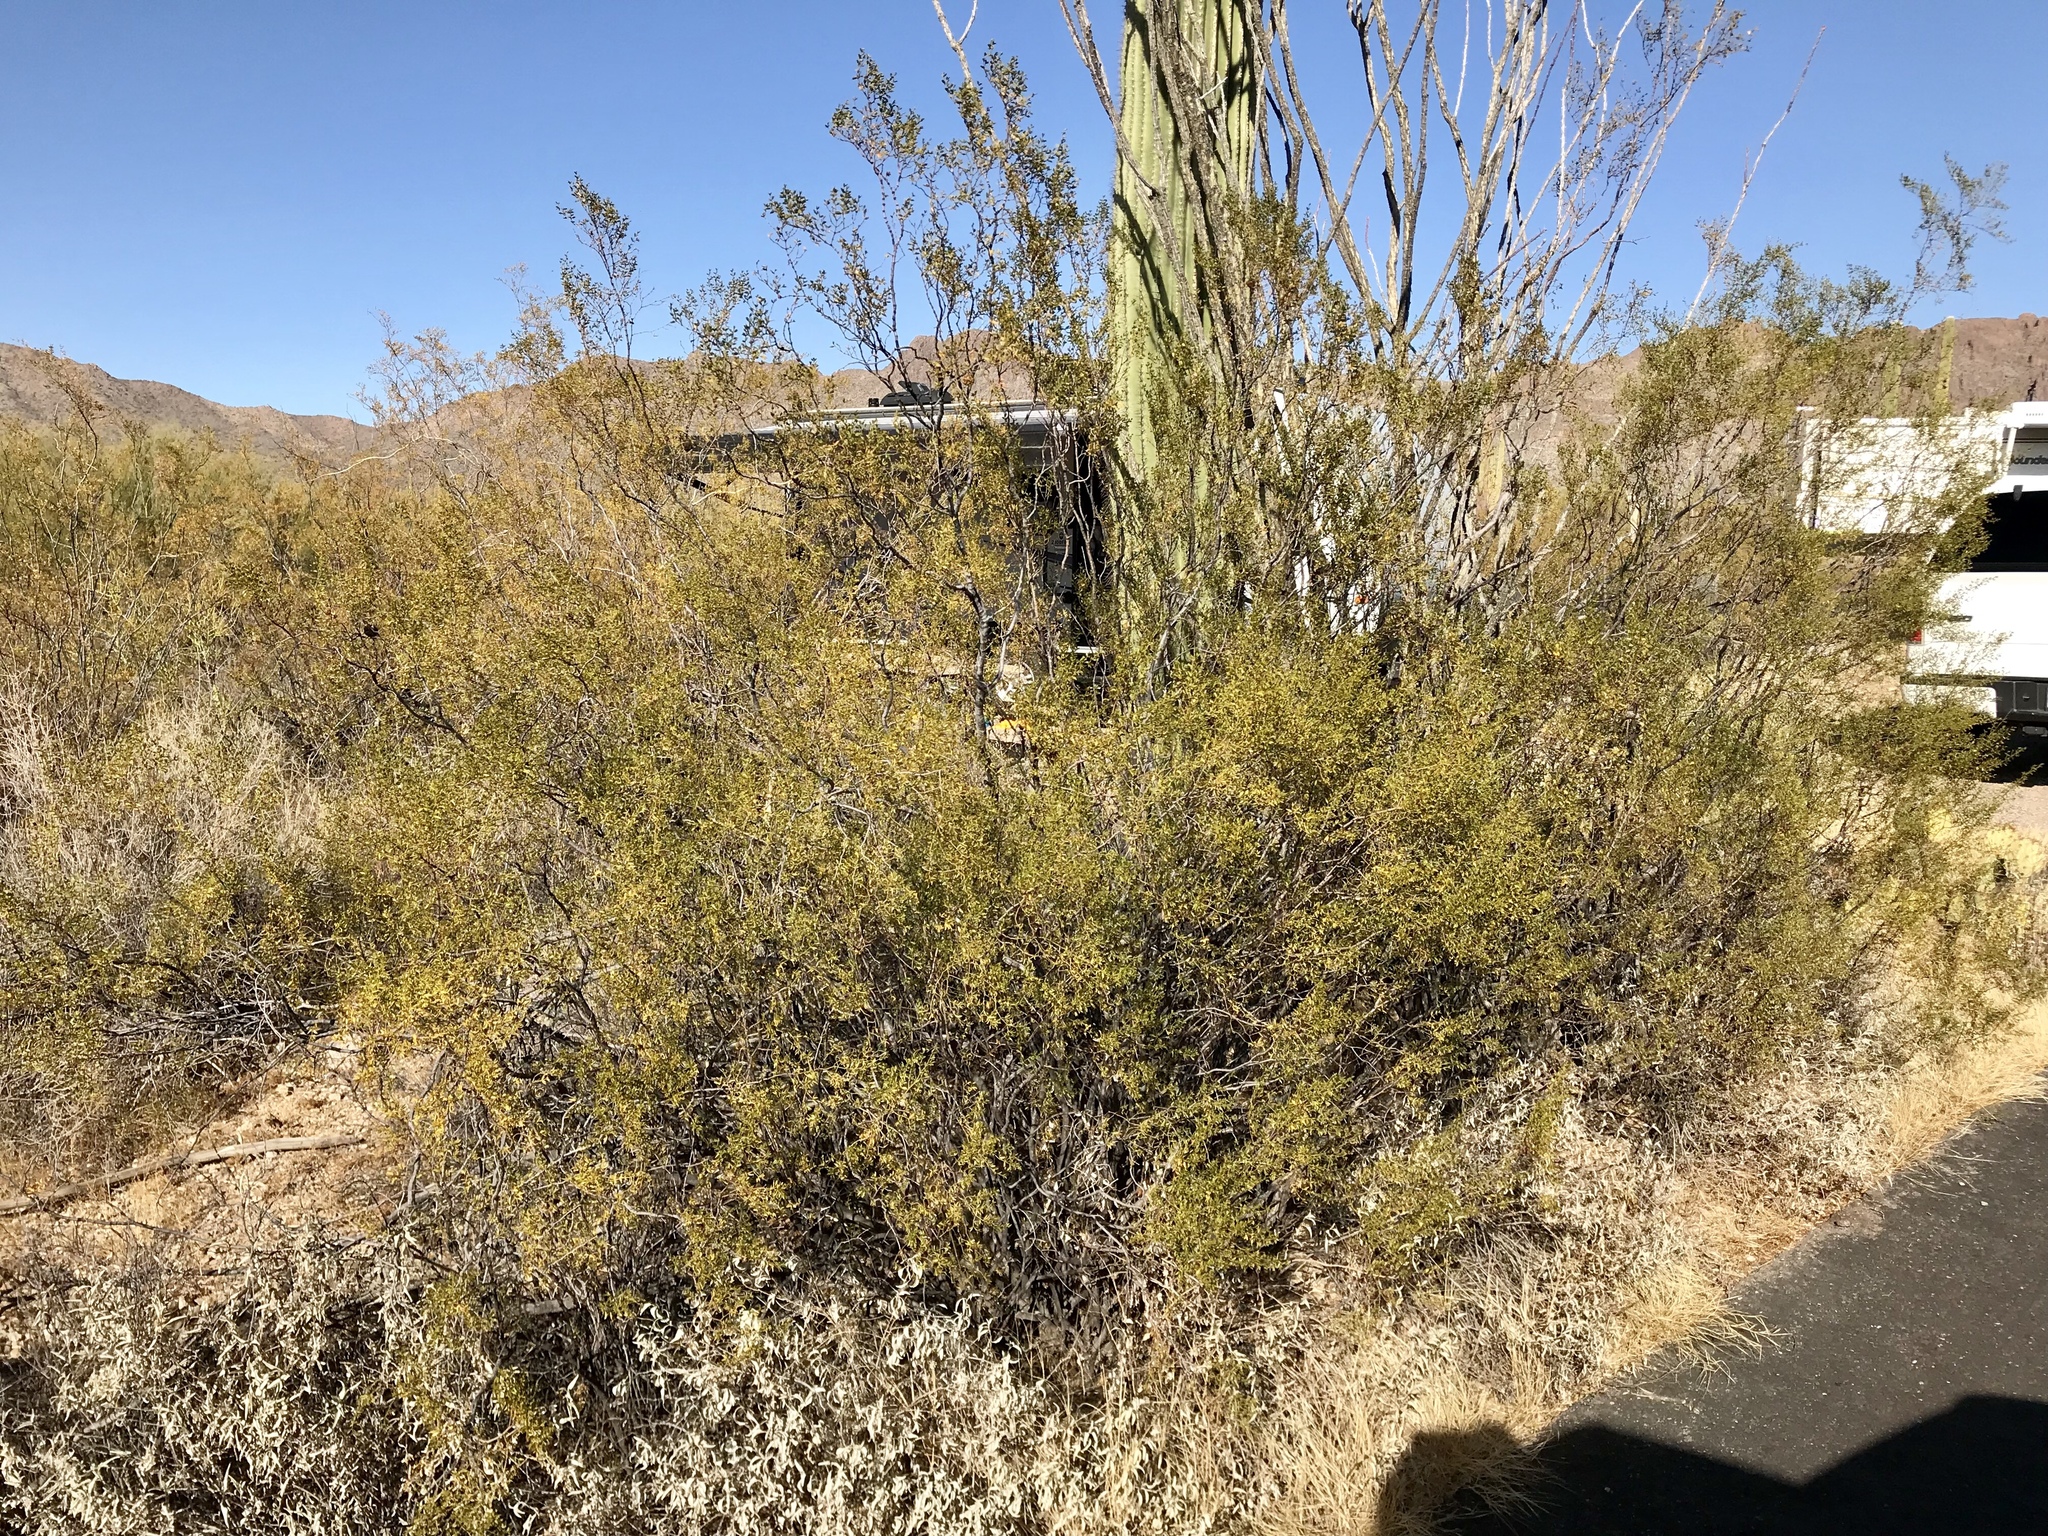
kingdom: Plantae
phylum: Tracheophyta
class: Magnoliopsida
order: Zygophyllales
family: Zygophyllaceae
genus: Larrea
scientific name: Larrea tridentata
